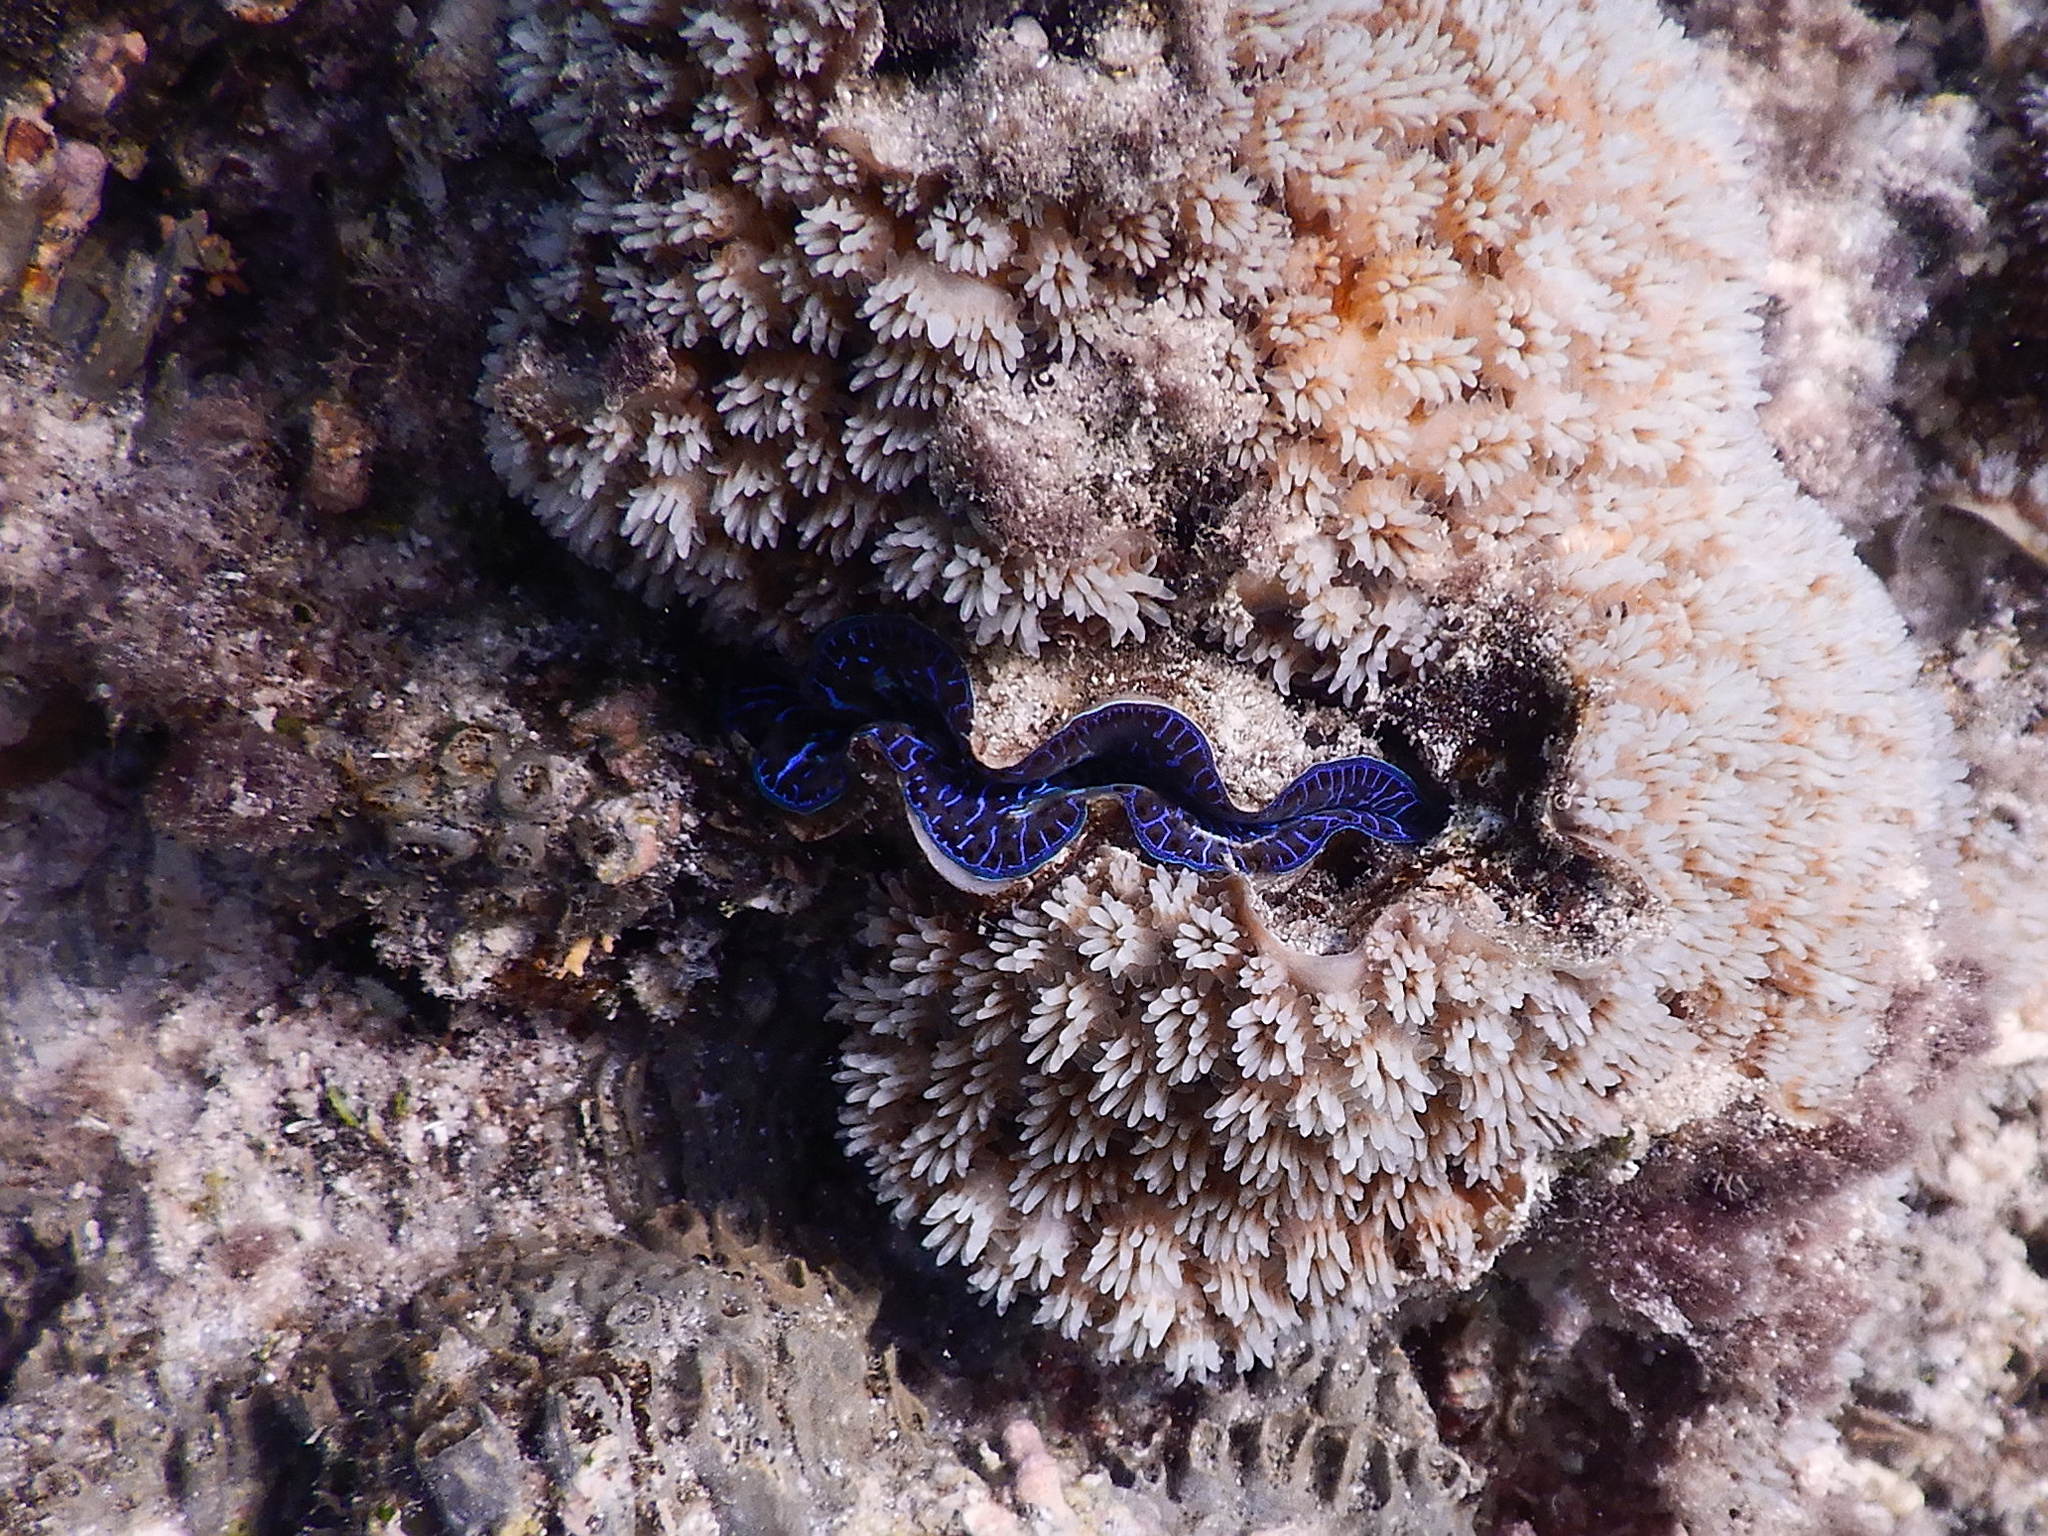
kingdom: Animalia
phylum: Mollusca
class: Bivalvia
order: Cardiida
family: Cardiidae
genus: Tridacna
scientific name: Tridacna maxima
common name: Small giant clam
